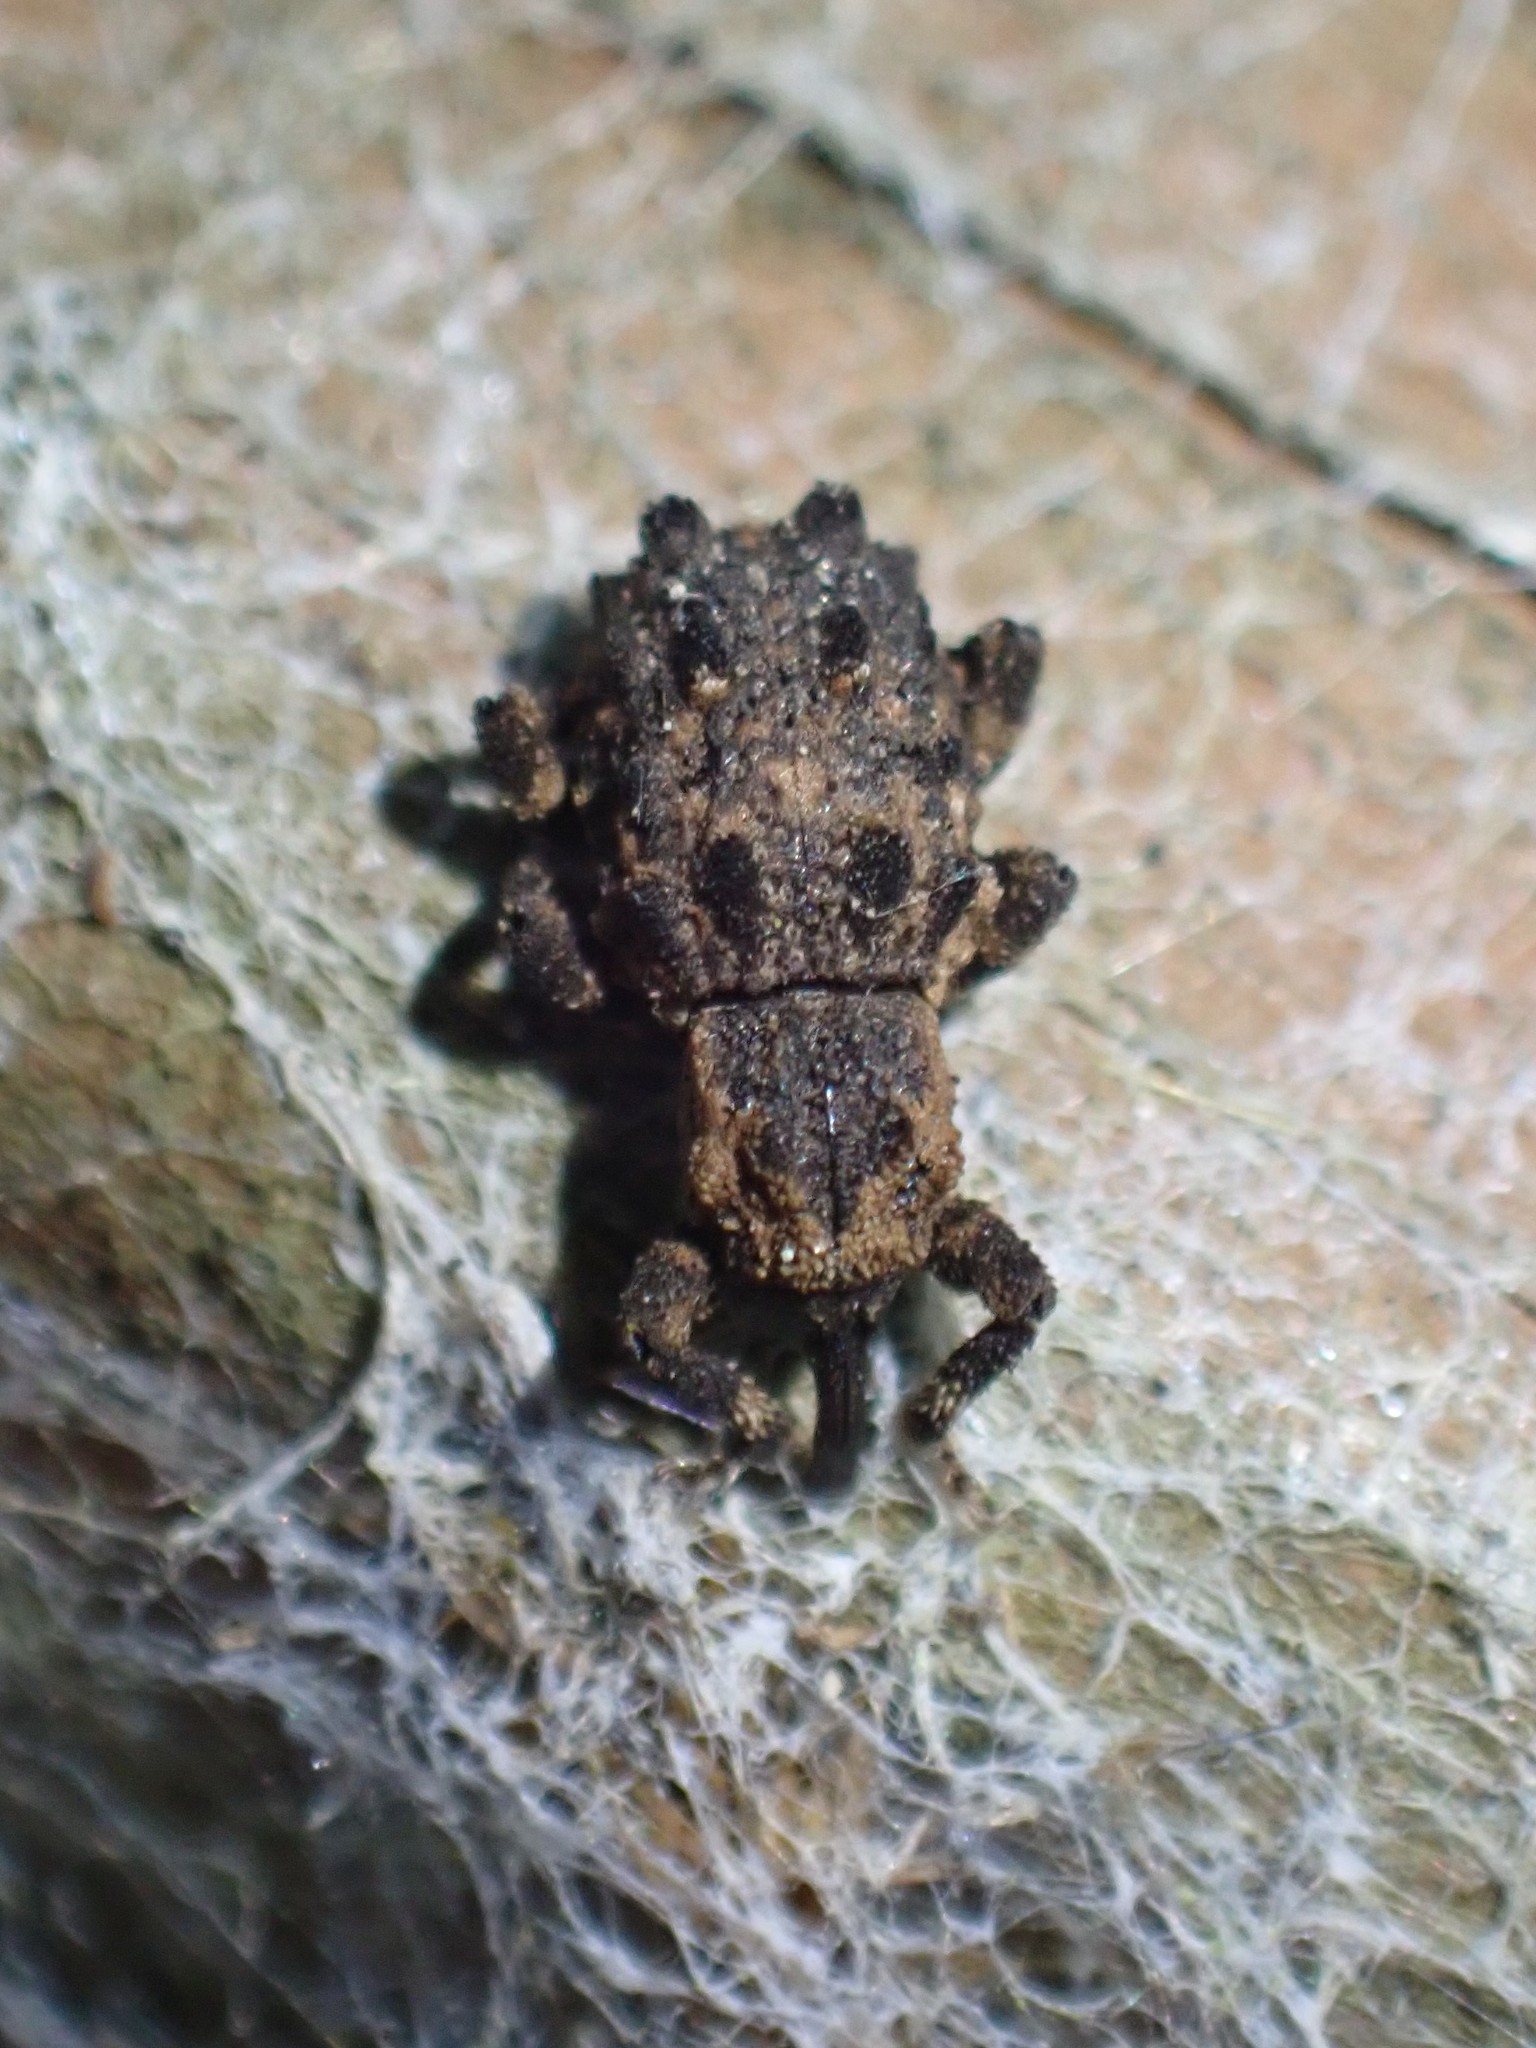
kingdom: Animalia
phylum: Arthropoda
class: Insecta
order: Coleoptera
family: Curculionidae
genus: Aparopion
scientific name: Aparopion horridus
